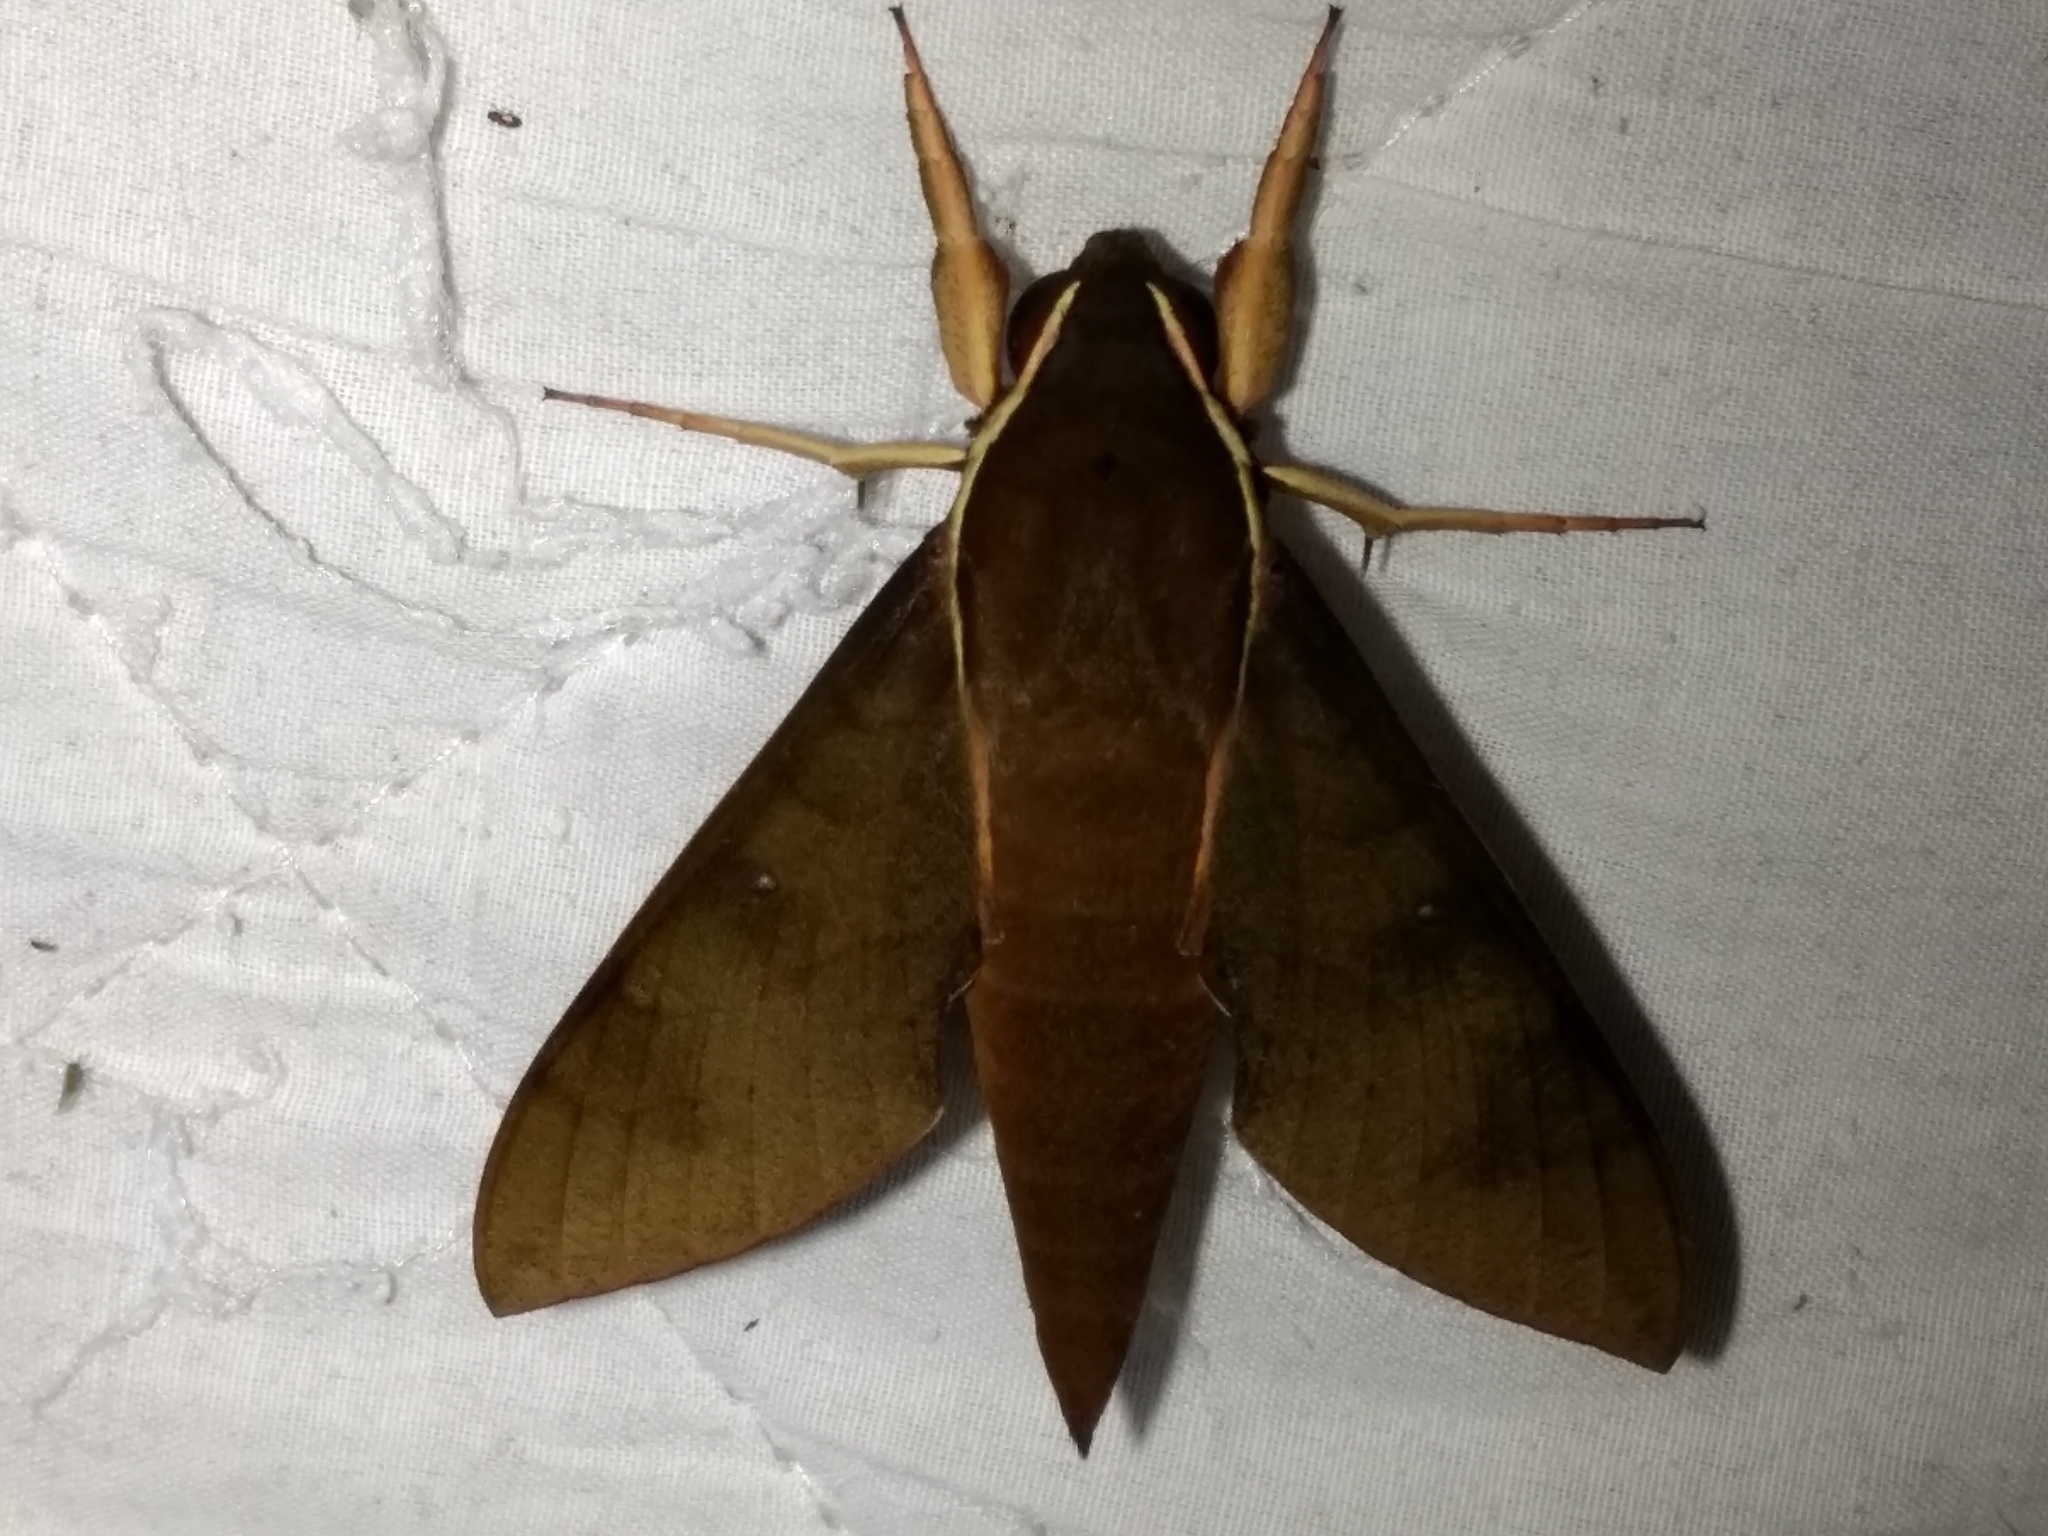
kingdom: Animalia
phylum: Arthropoda
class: Insecta
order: Lepidoptera
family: Sphingidae
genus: Gnathothlibus
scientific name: Gnathothlibus eras
